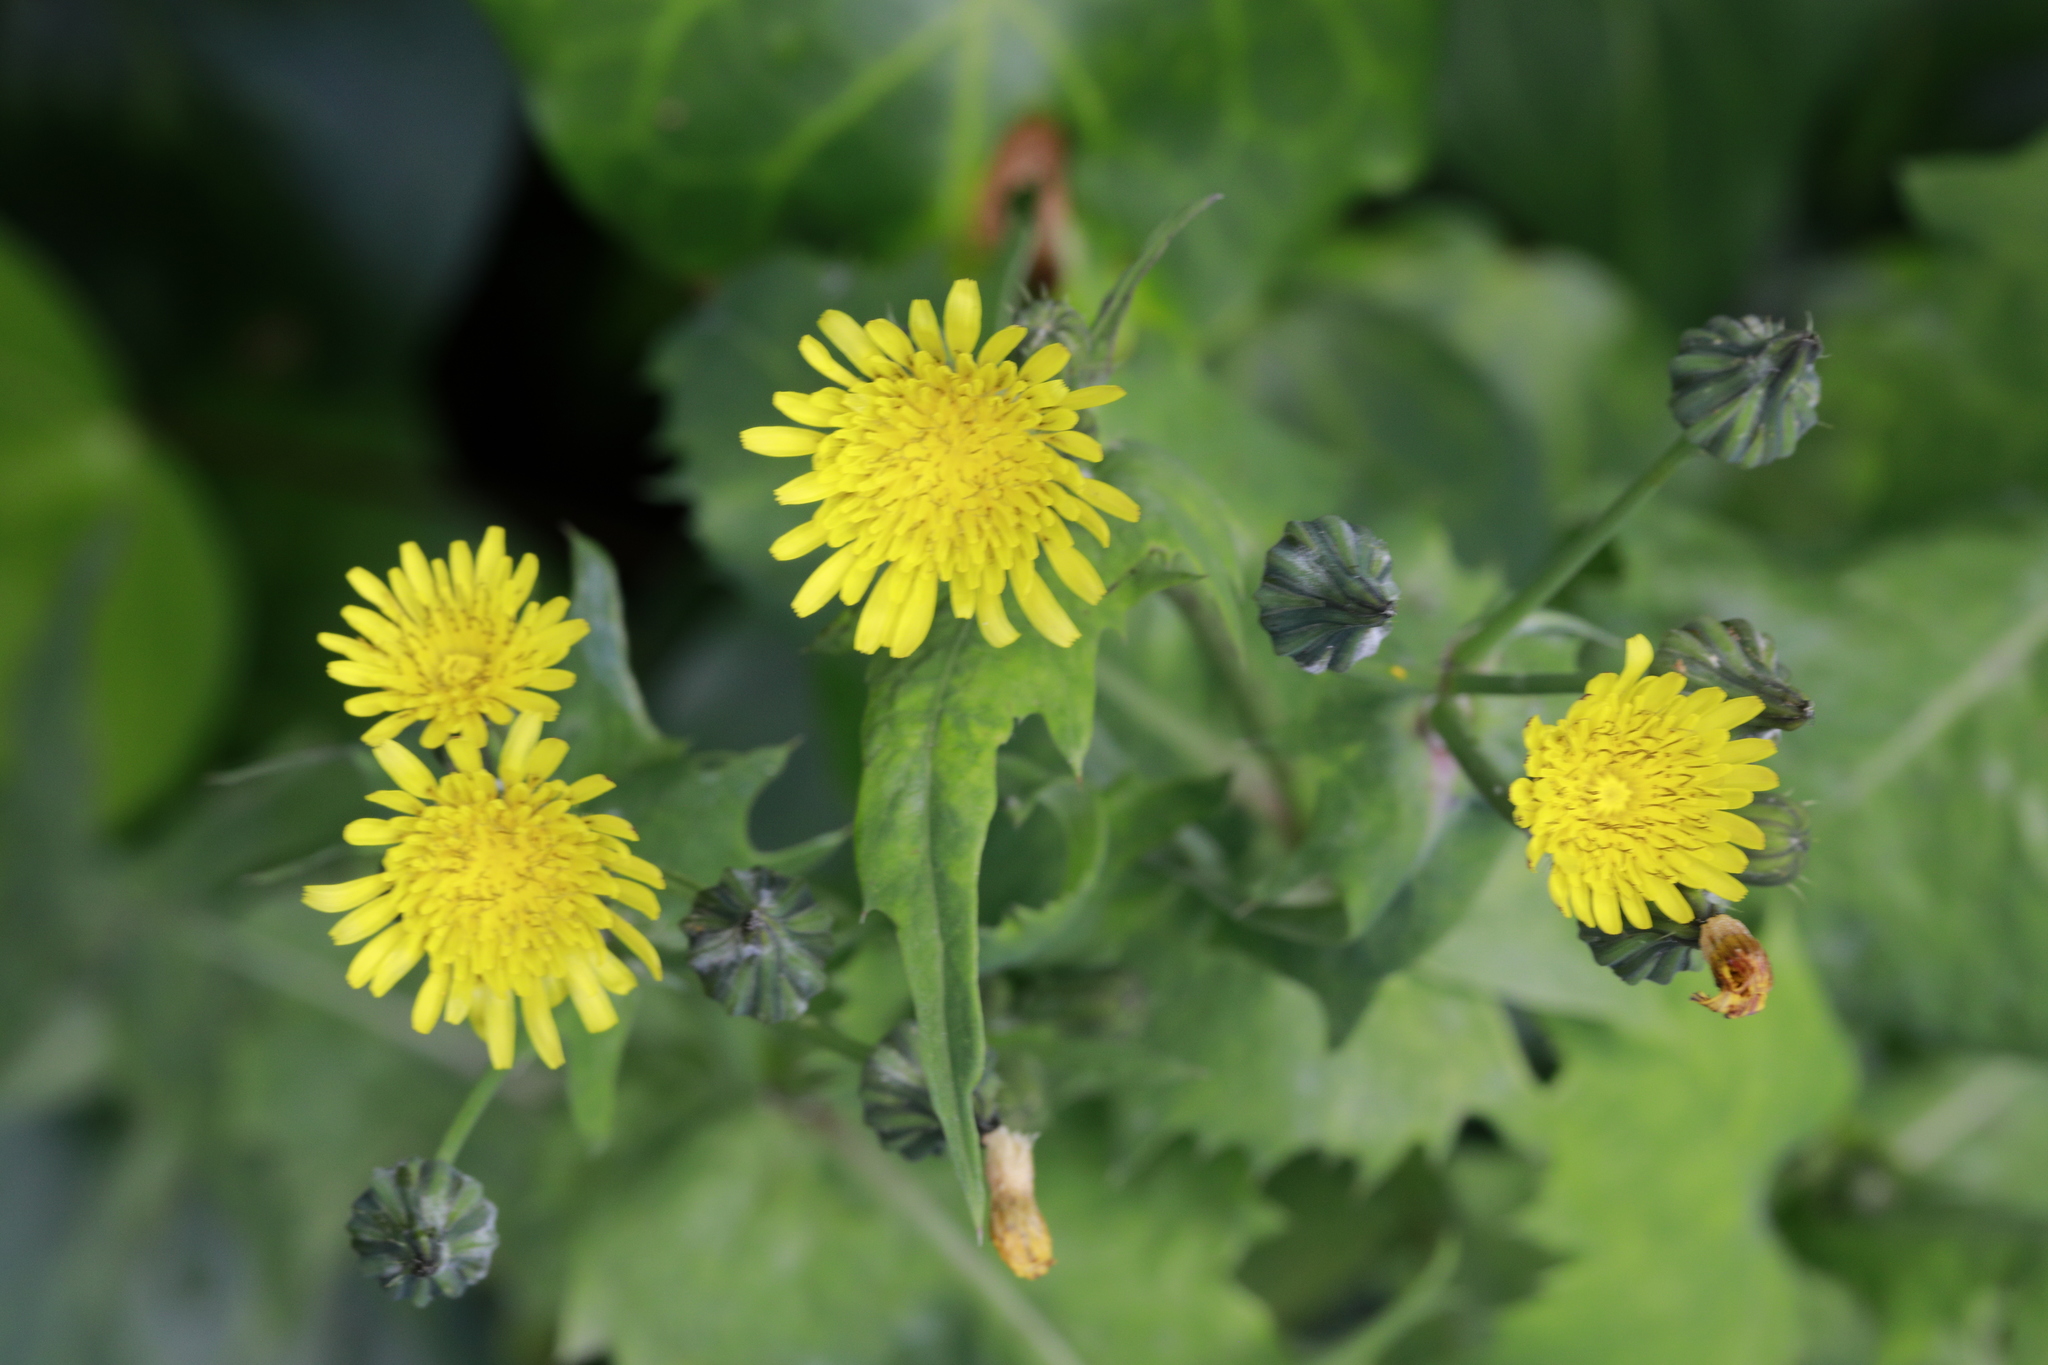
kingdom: Plantae
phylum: Tracheophyta
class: Magnoliopsida
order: Asterales
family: Asteraceae
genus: Sonchus
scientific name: Sonchus oleraceus
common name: Common sowthistle
